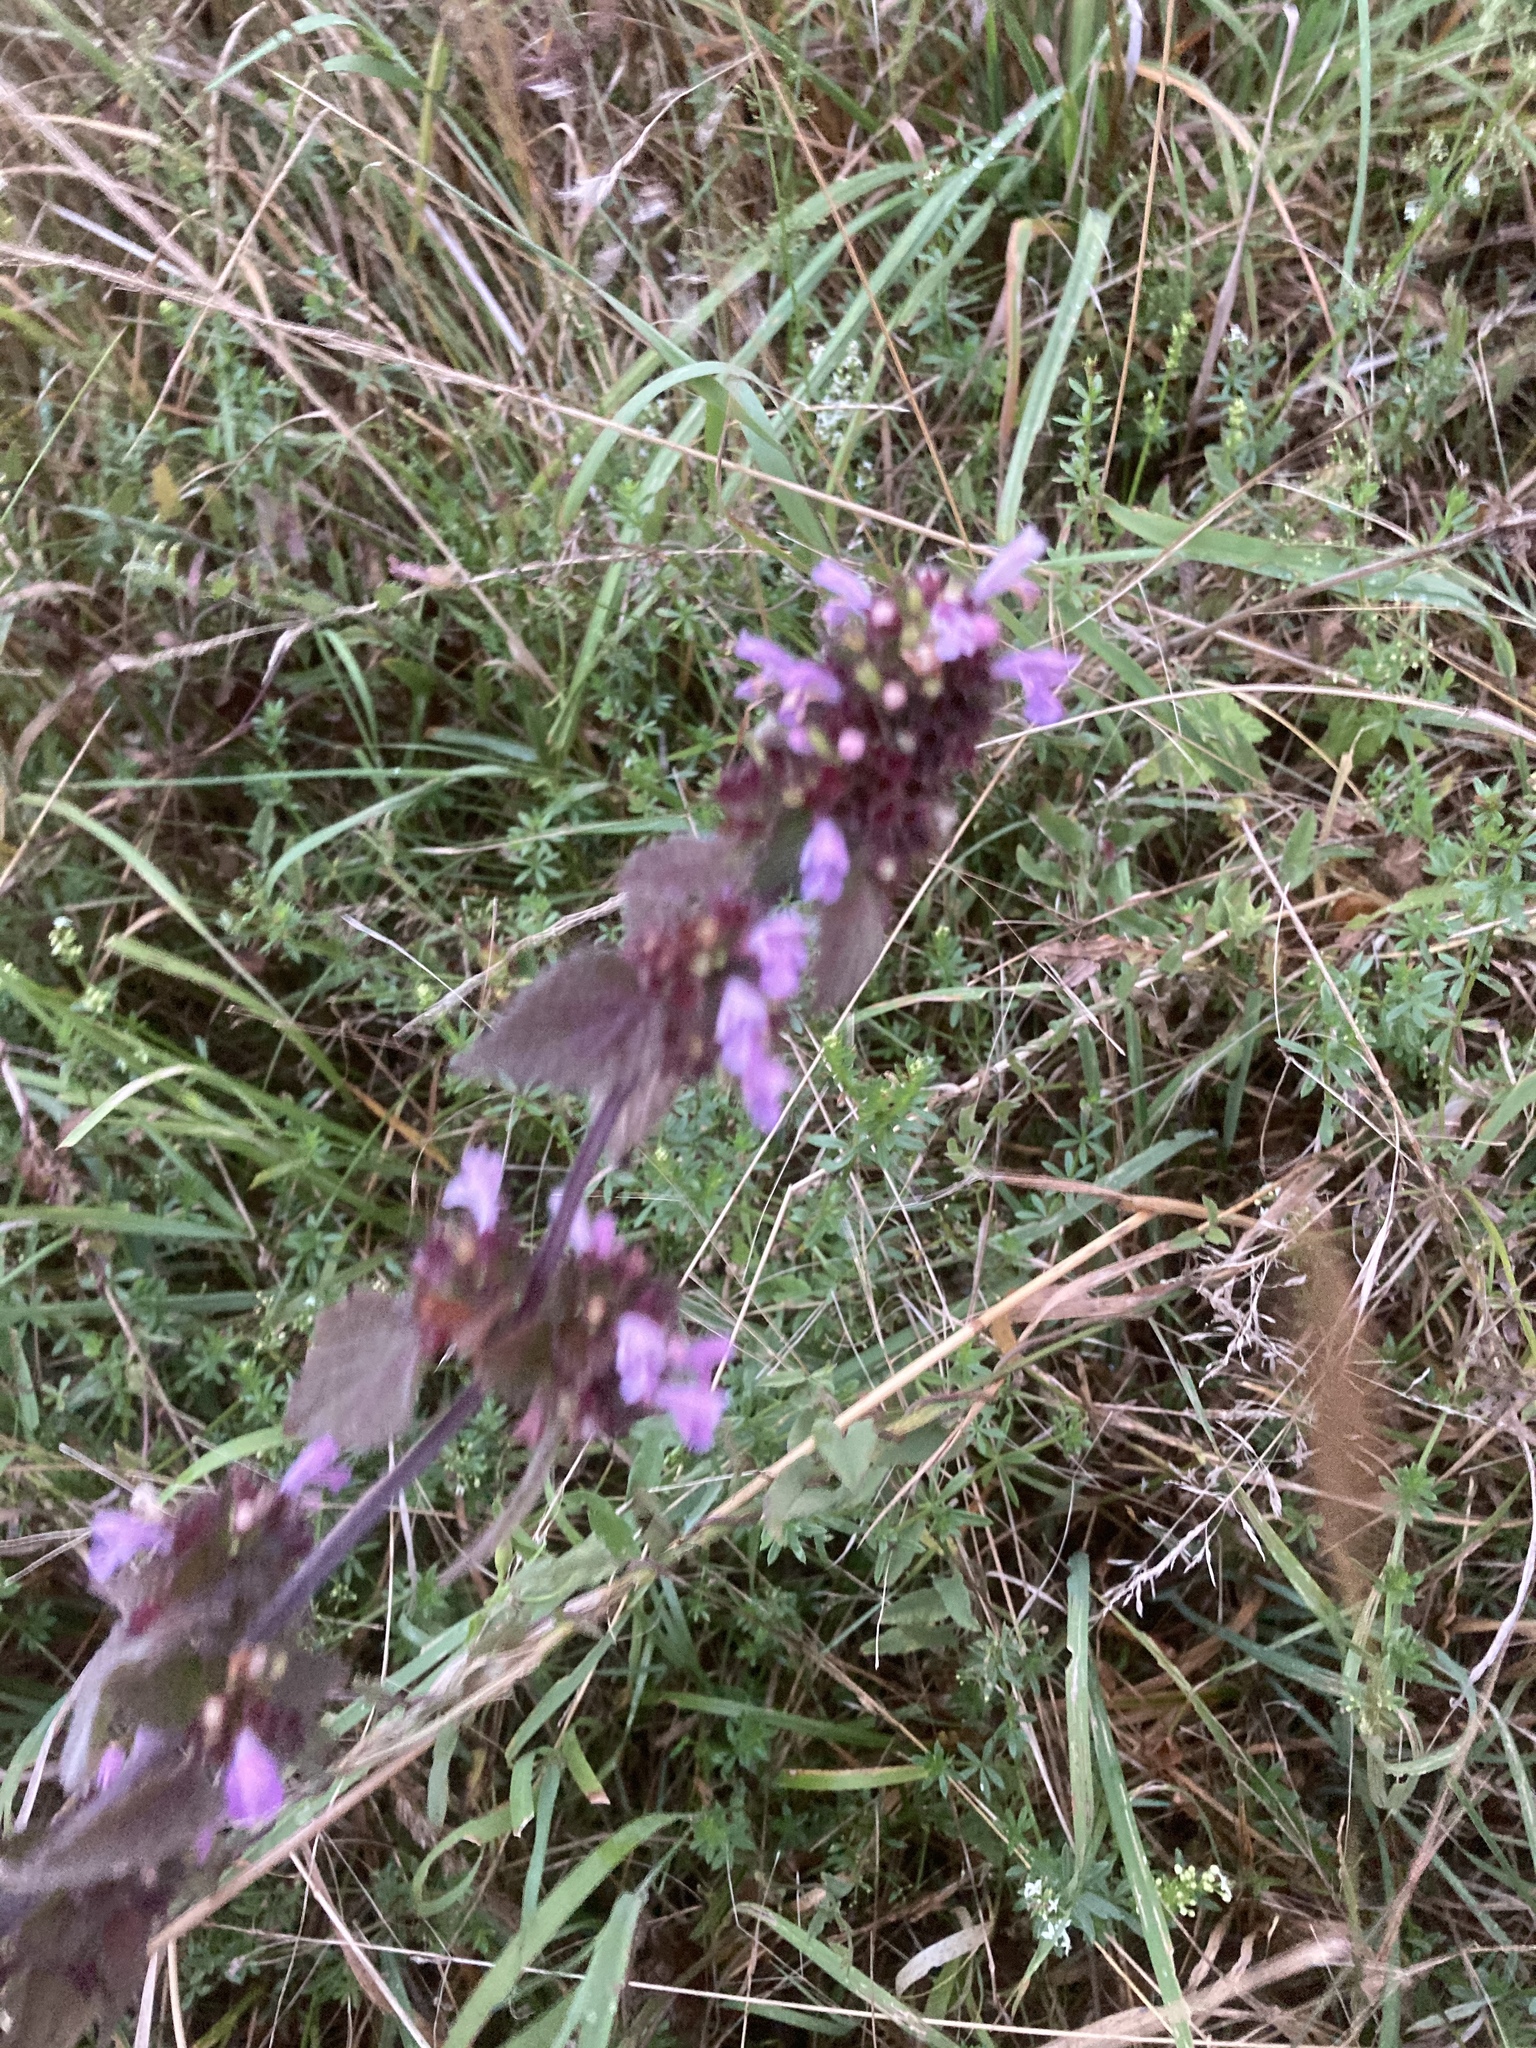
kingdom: Plantae
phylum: Tracheophyta
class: Magnoliopsida
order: Lamiales
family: Lamiaceae
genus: Ballota
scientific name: Ballota nigra
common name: Black horehound
